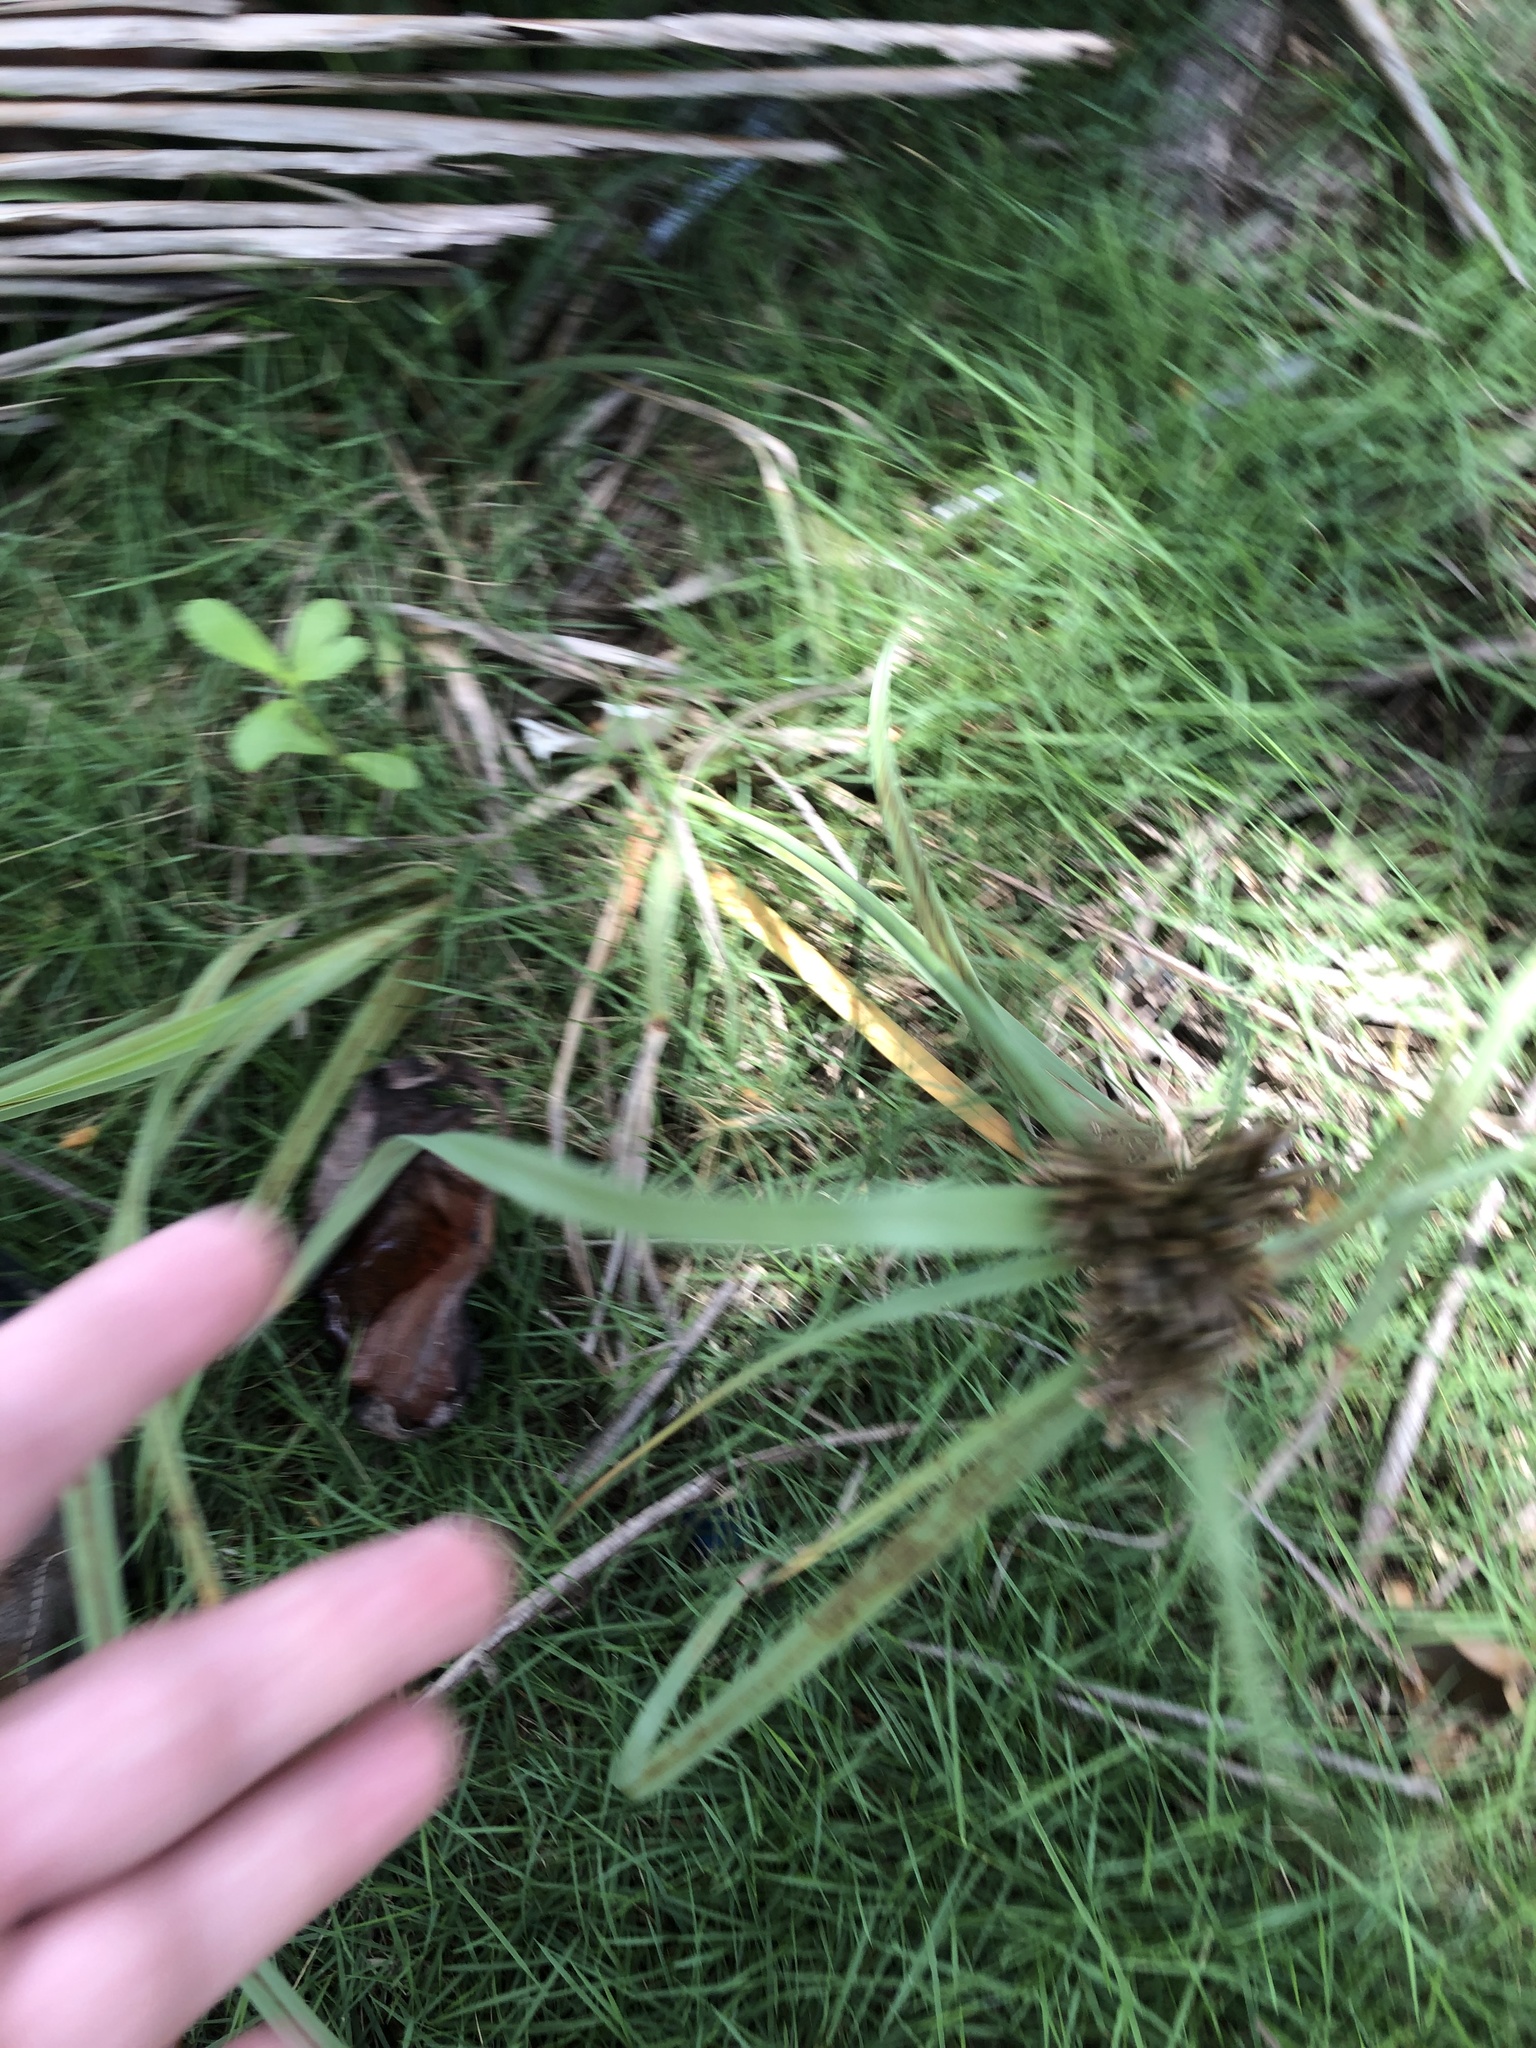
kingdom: Plantae
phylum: Tracheophyta
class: Liliopsida
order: Poales
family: Cyperaceae
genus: Cyperus
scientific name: Cyperus planifolius
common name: Bullgrass
